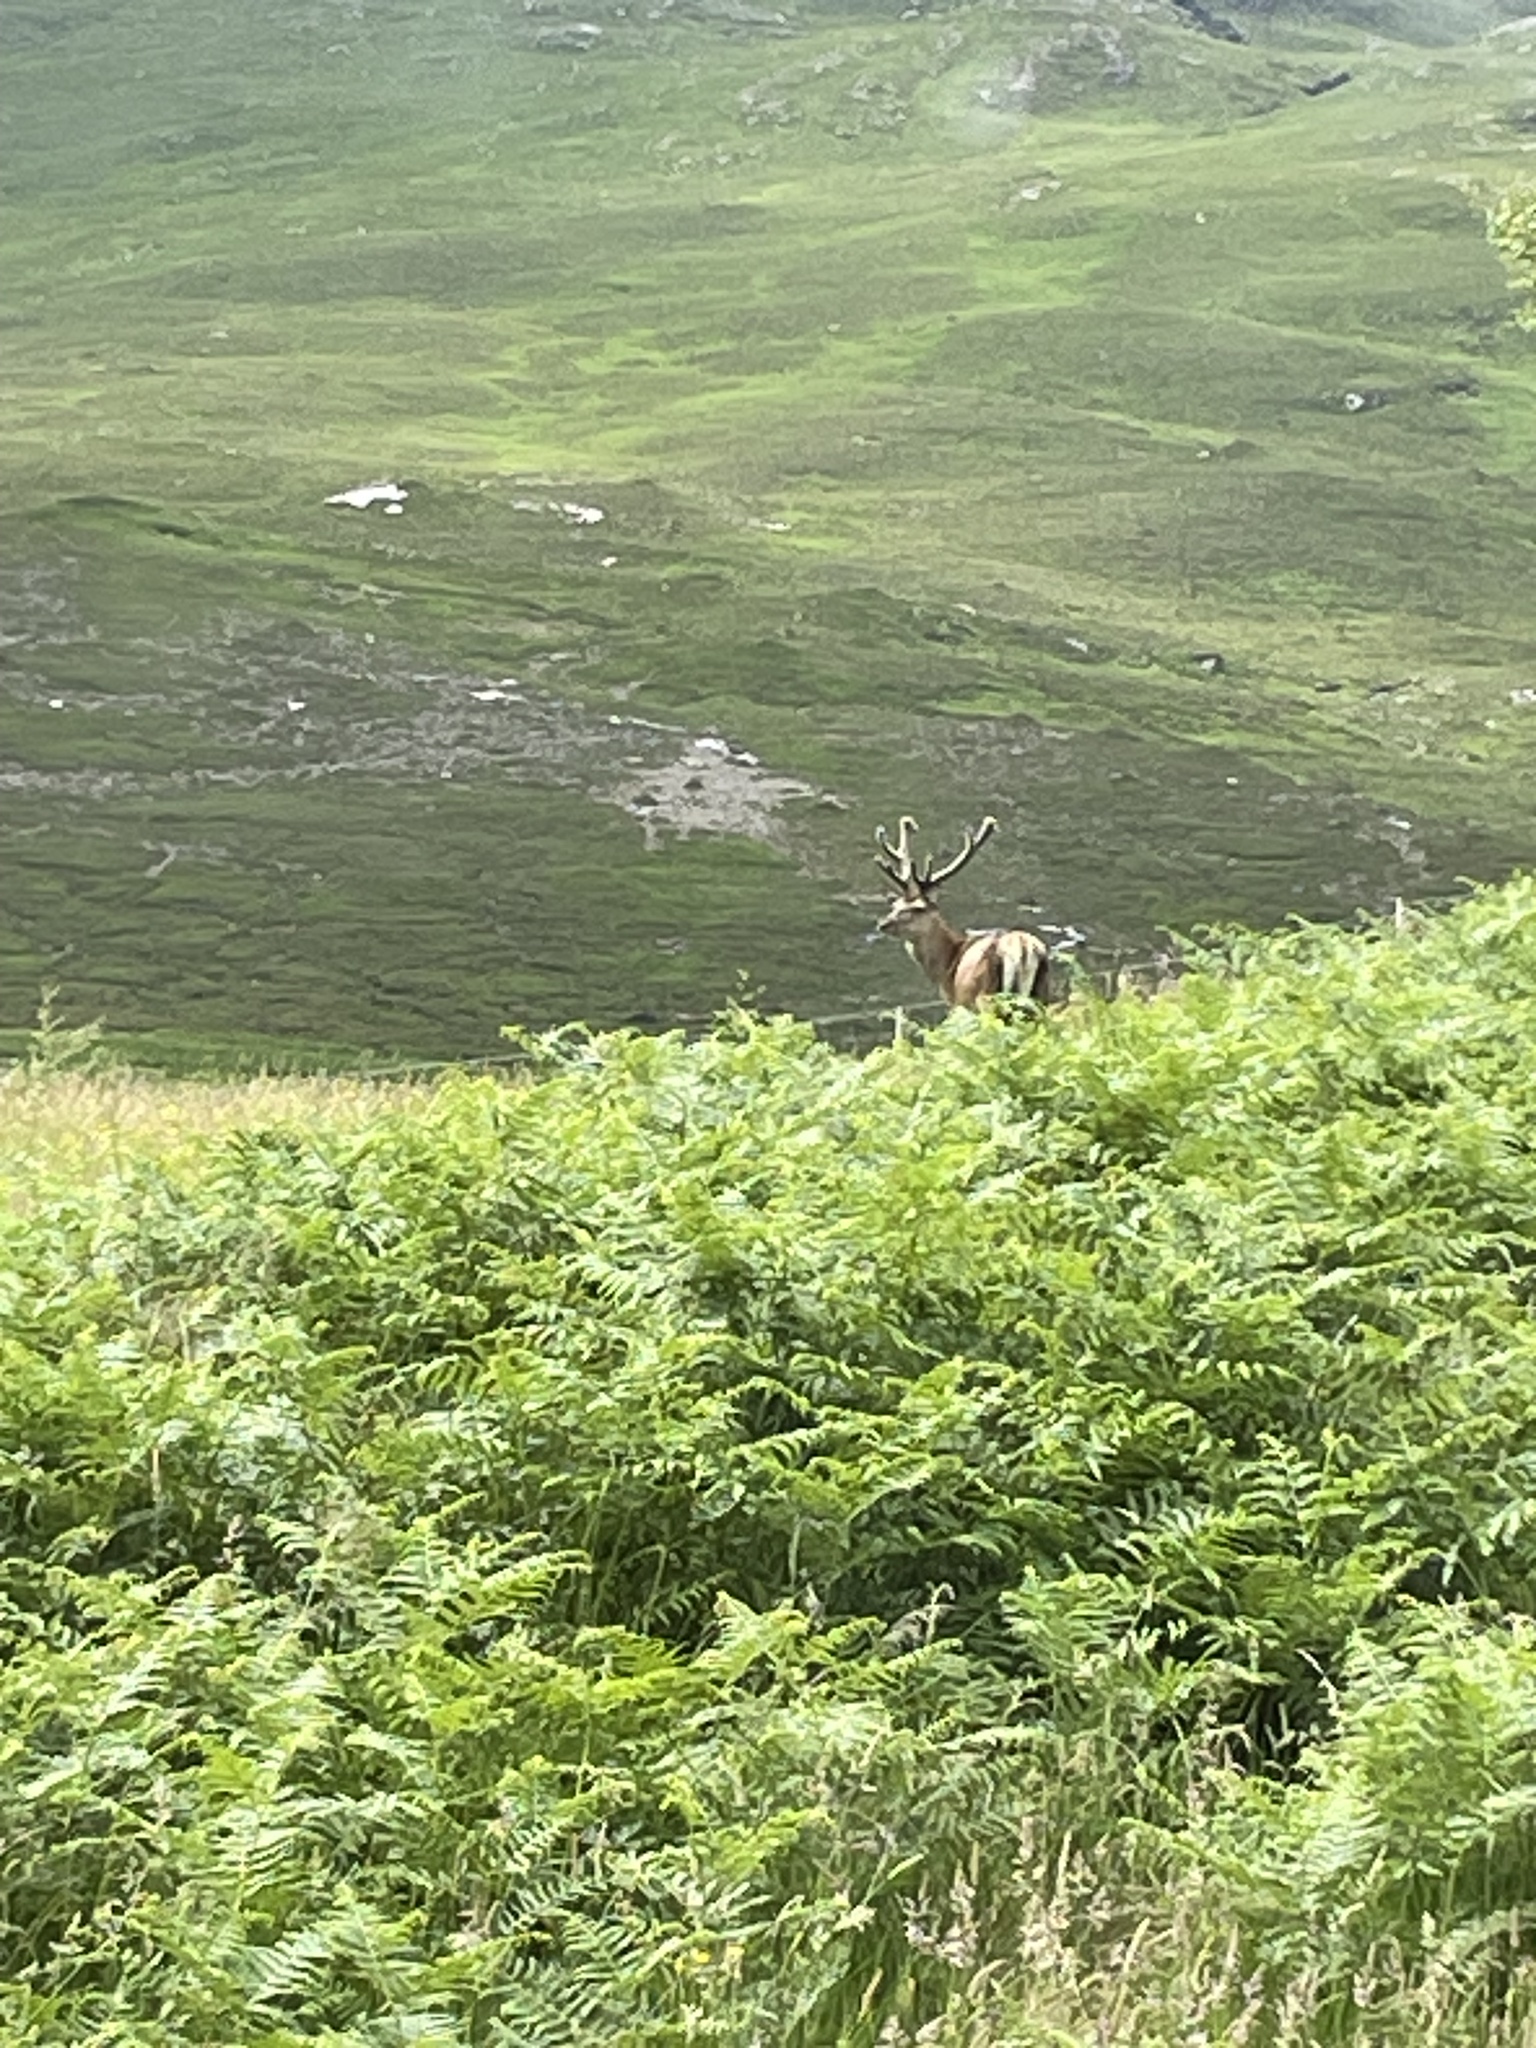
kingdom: Animalia
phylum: Chordata
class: Mammalia
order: Artiodactyla
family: Cervidae
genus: Cervus
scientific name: Cervus elaphus
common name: Red deer
